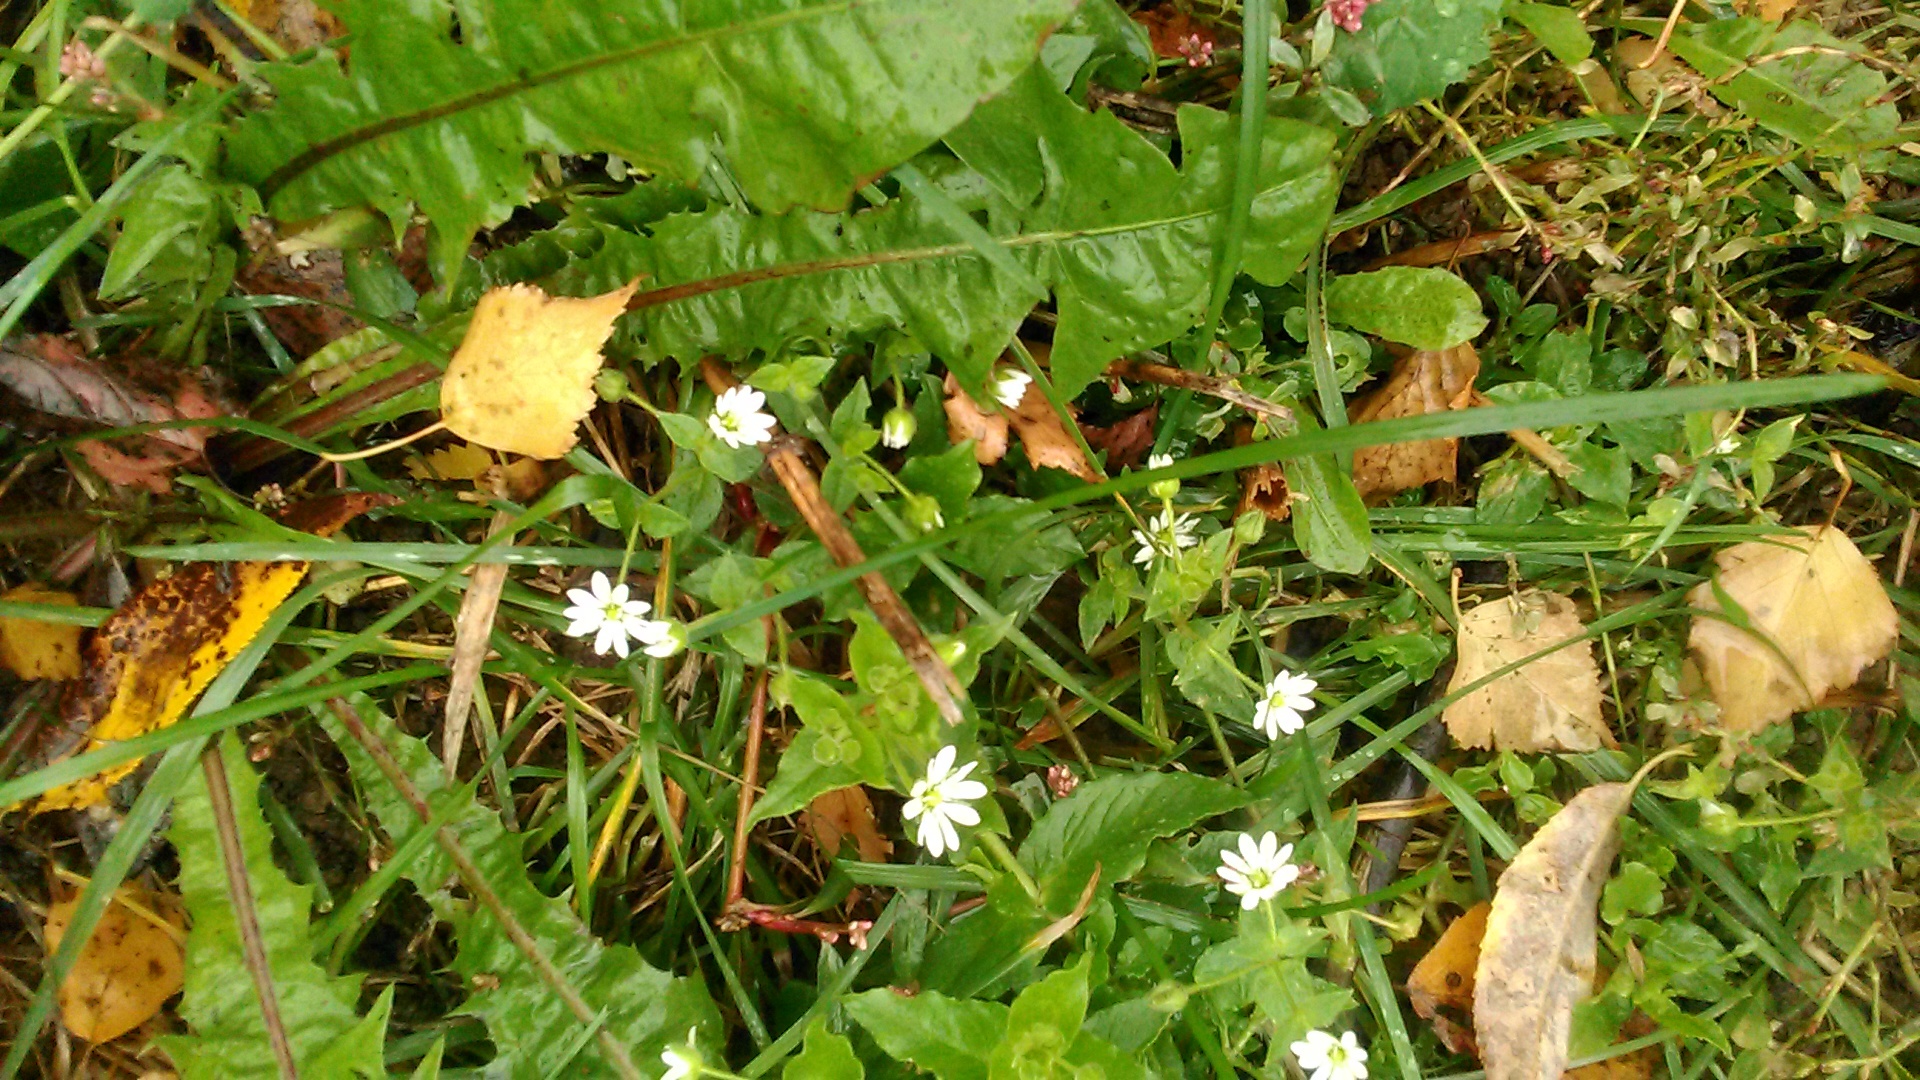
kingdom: Plantae
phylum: Tracheophyta
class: Magnoliopsida
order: Caryophyllales
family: Caryophyllaceae
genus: Stellaria
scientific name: Stellaria aquatica
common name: Water chickweed
